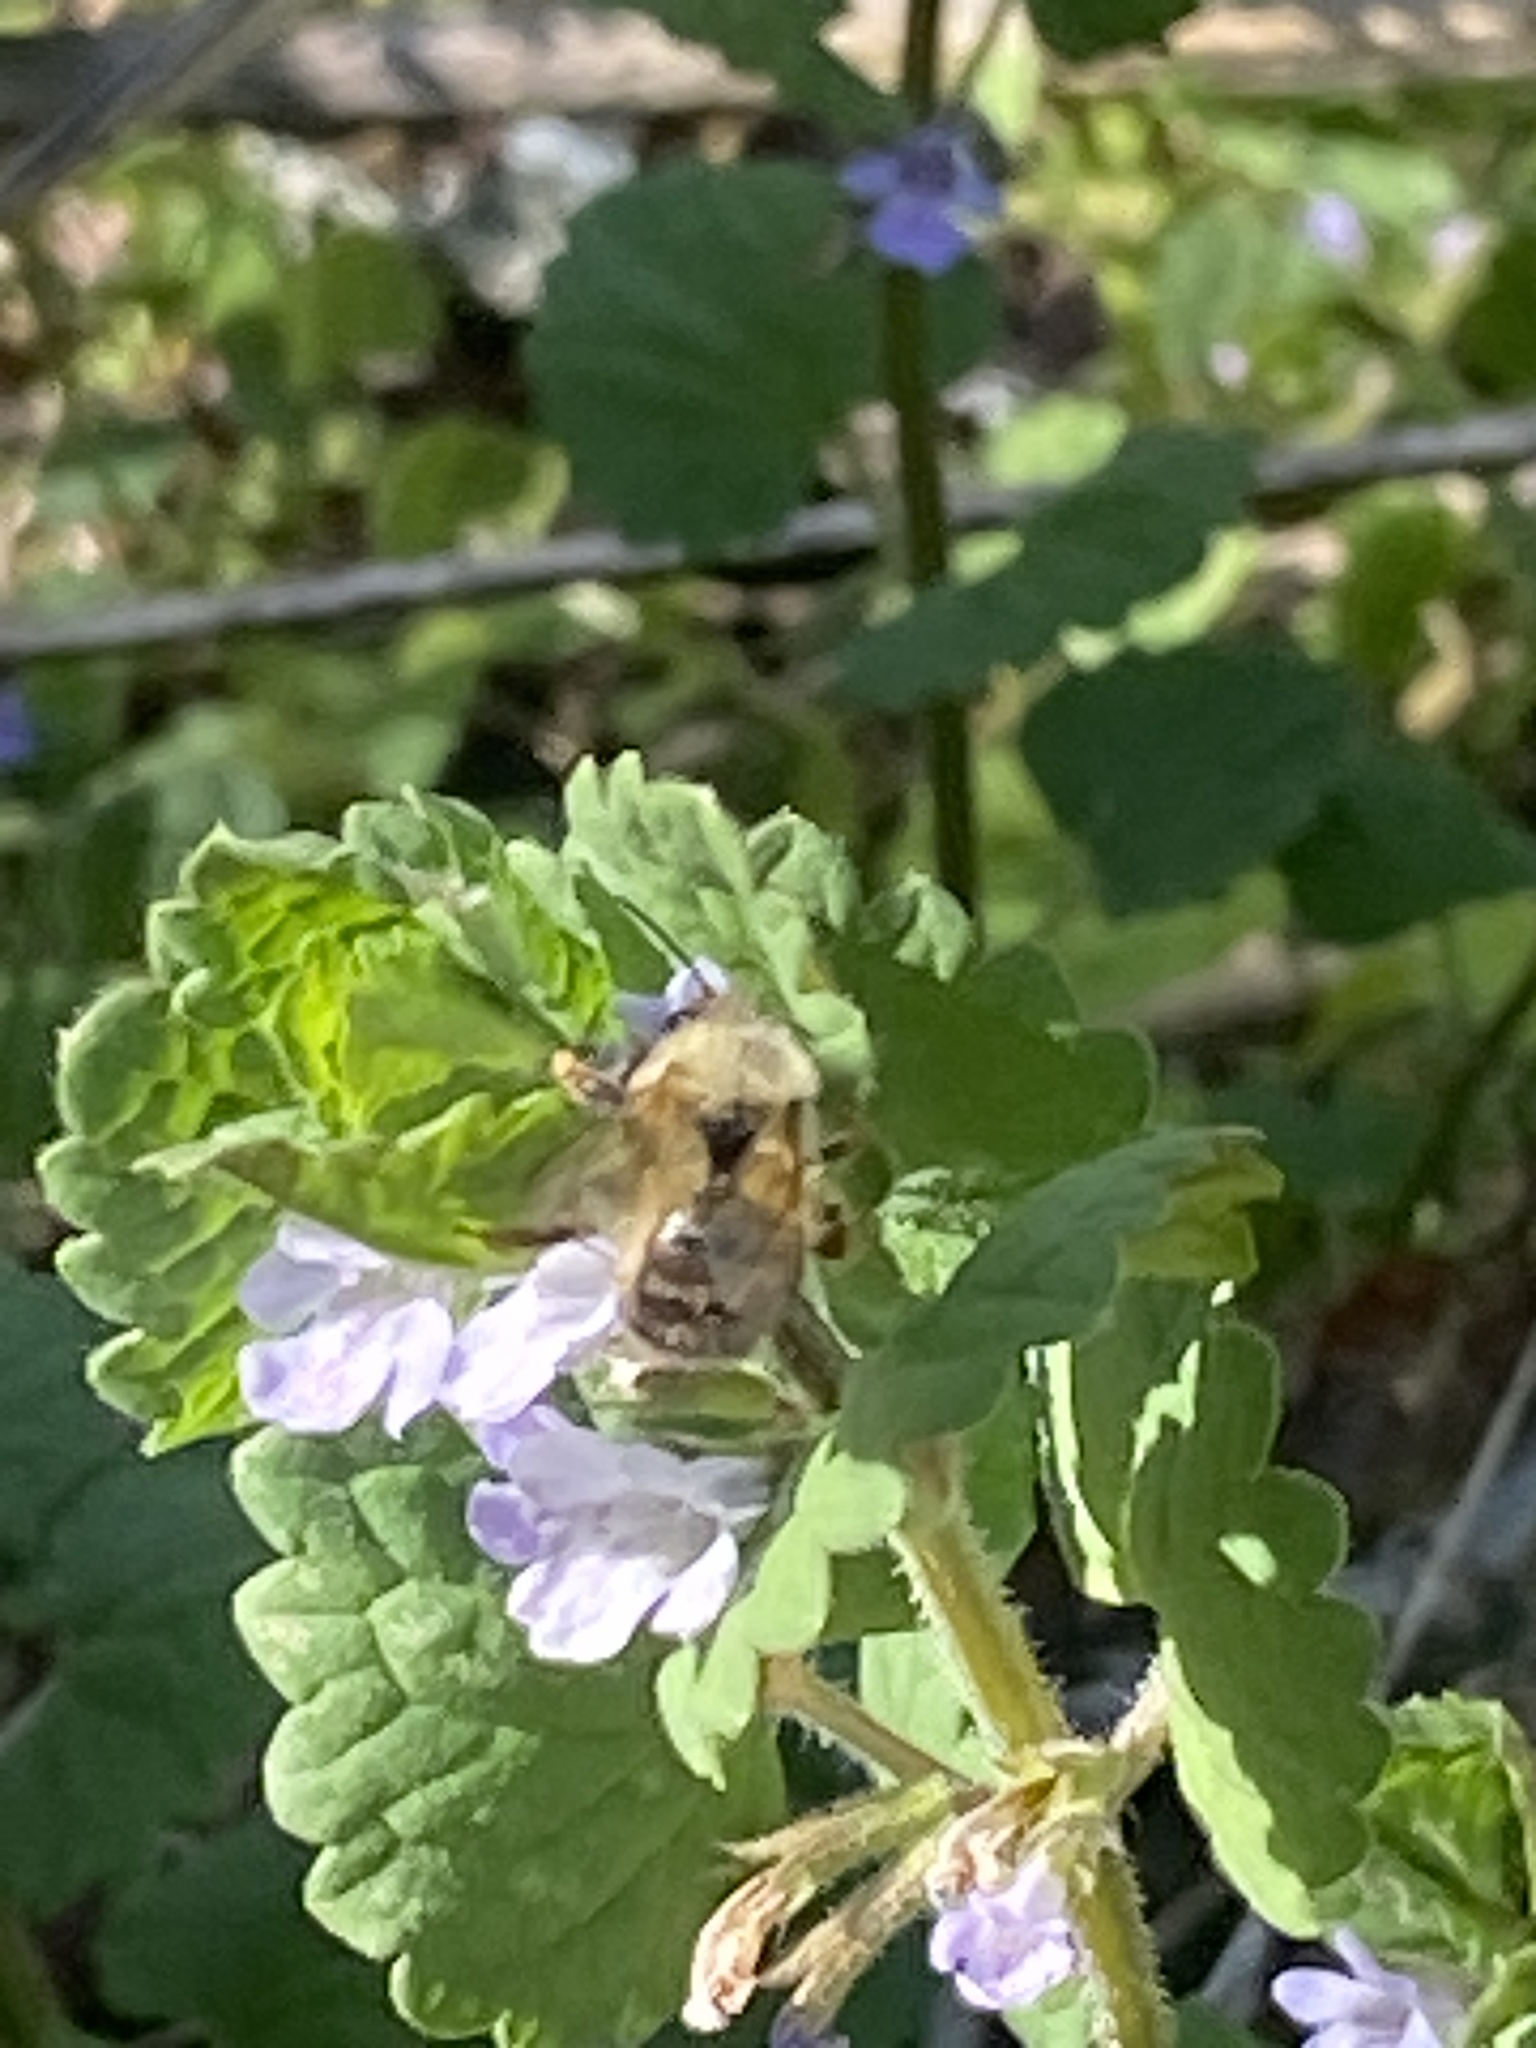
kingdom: Animalia
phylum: Arthropoda
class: Insecta
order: Hymenoptera
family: Apidae
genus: Bombus
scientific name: Bombus
